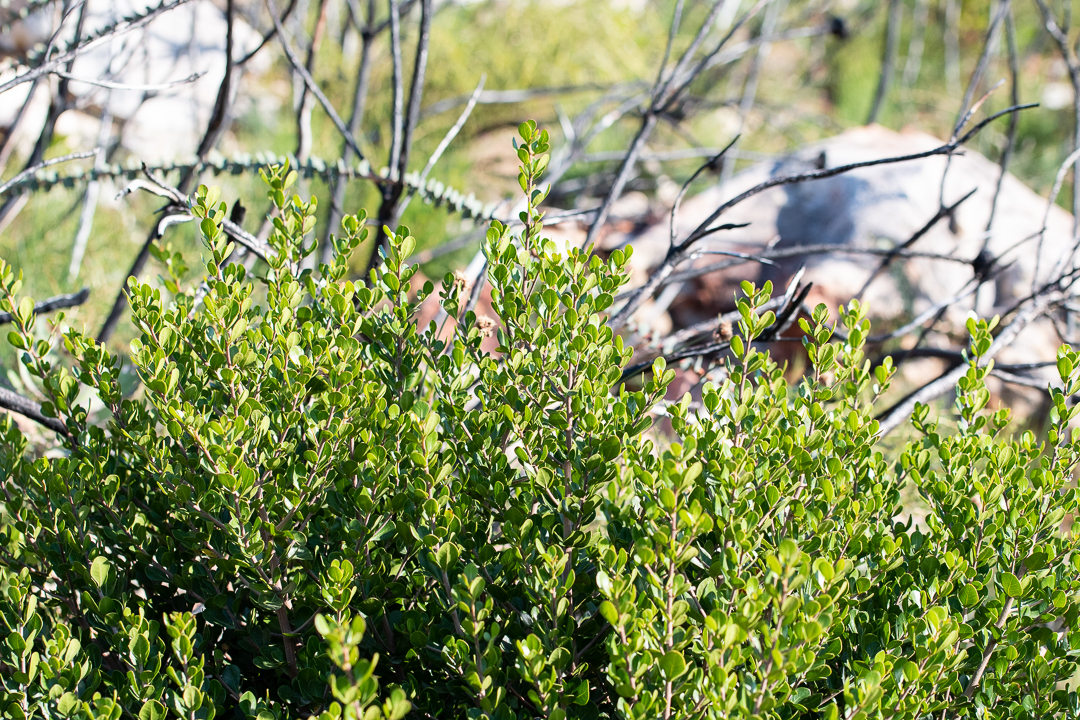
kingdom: Plantae
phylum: Tracheophyta
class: Magnoliopsida
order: Sapindales
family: Anacardiaceae
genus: Searsia
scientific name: Searsia crenata
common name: Crowberry
